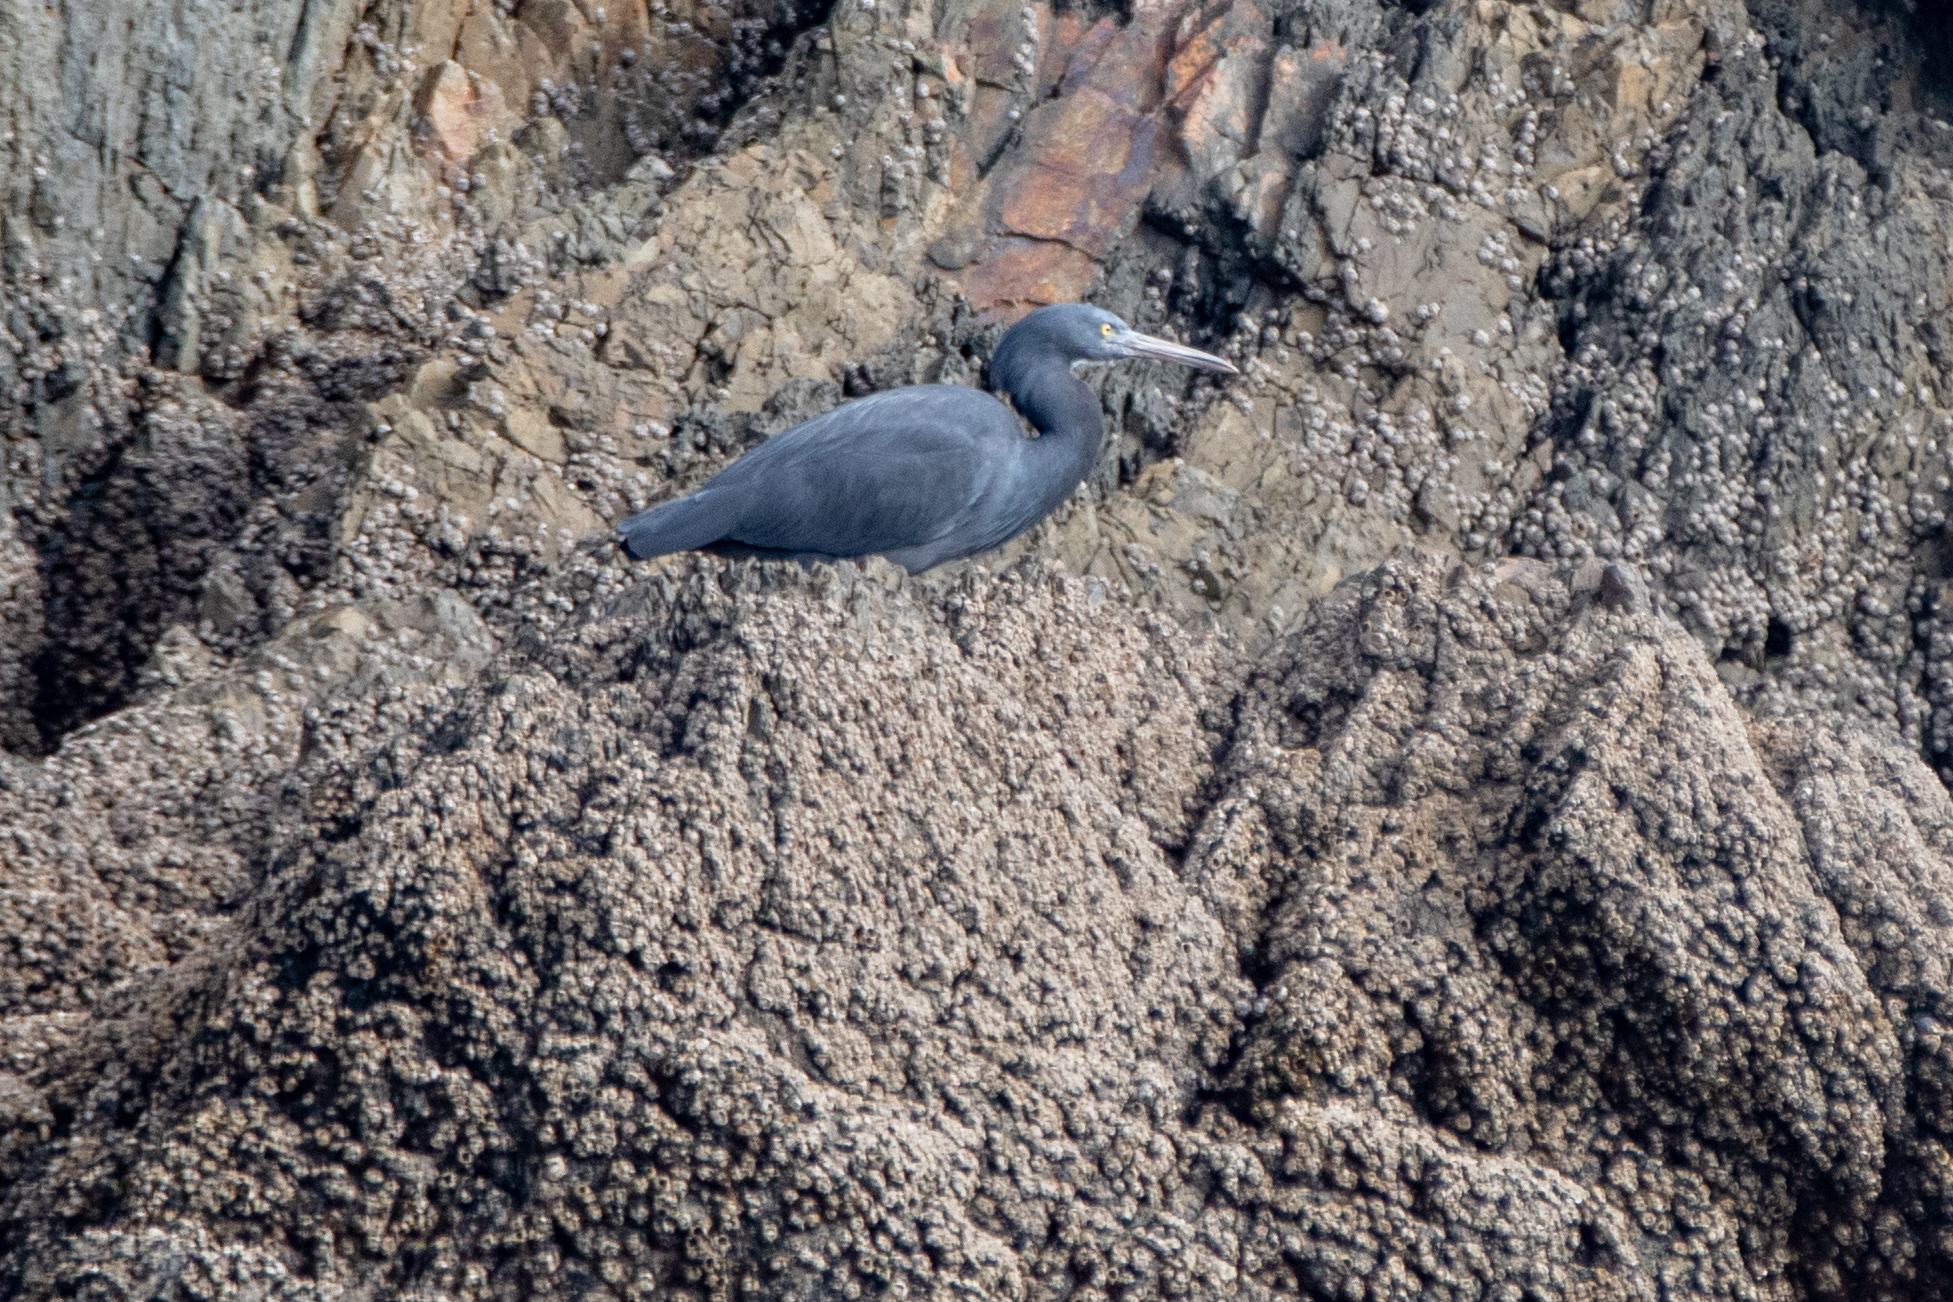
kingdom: Animalia
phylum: Chordata
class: Aves
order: Pelecaniformes
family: Ardeidae
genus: Egretta
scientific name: Egretta sacra
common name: Pacific reef heron
